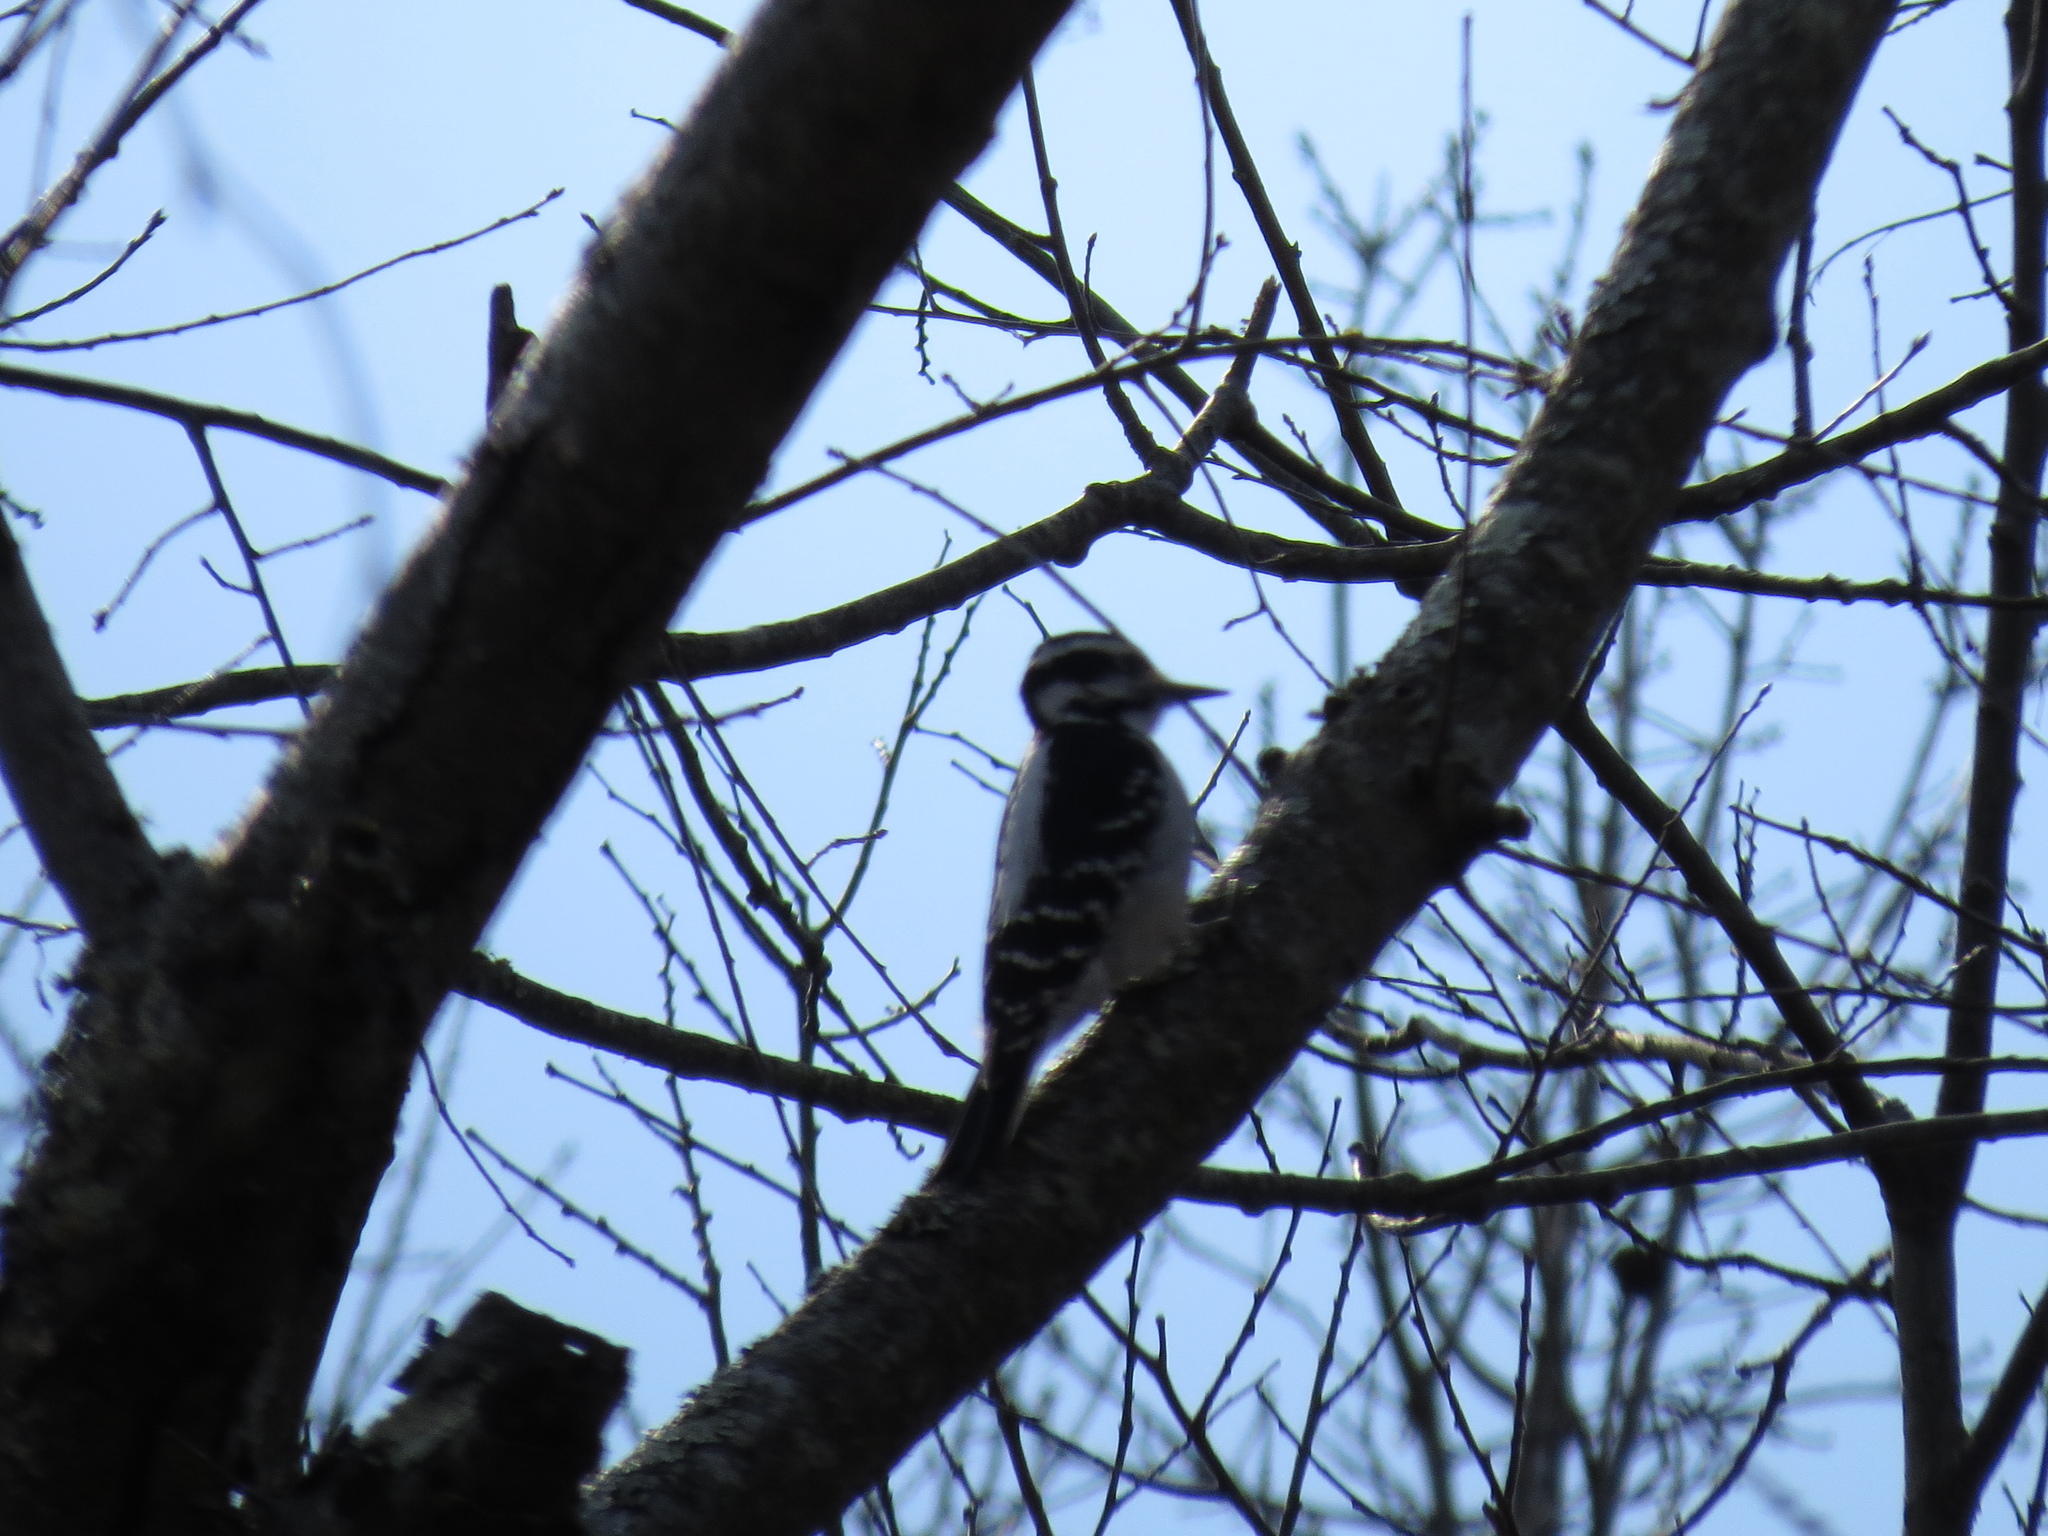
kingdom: Animalia
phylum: Chordata
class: Aves
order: Piciformes
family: Picidae
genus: Leuconotopicus
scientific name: Leuconotopicus villosus
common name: Hairy woodpecker
